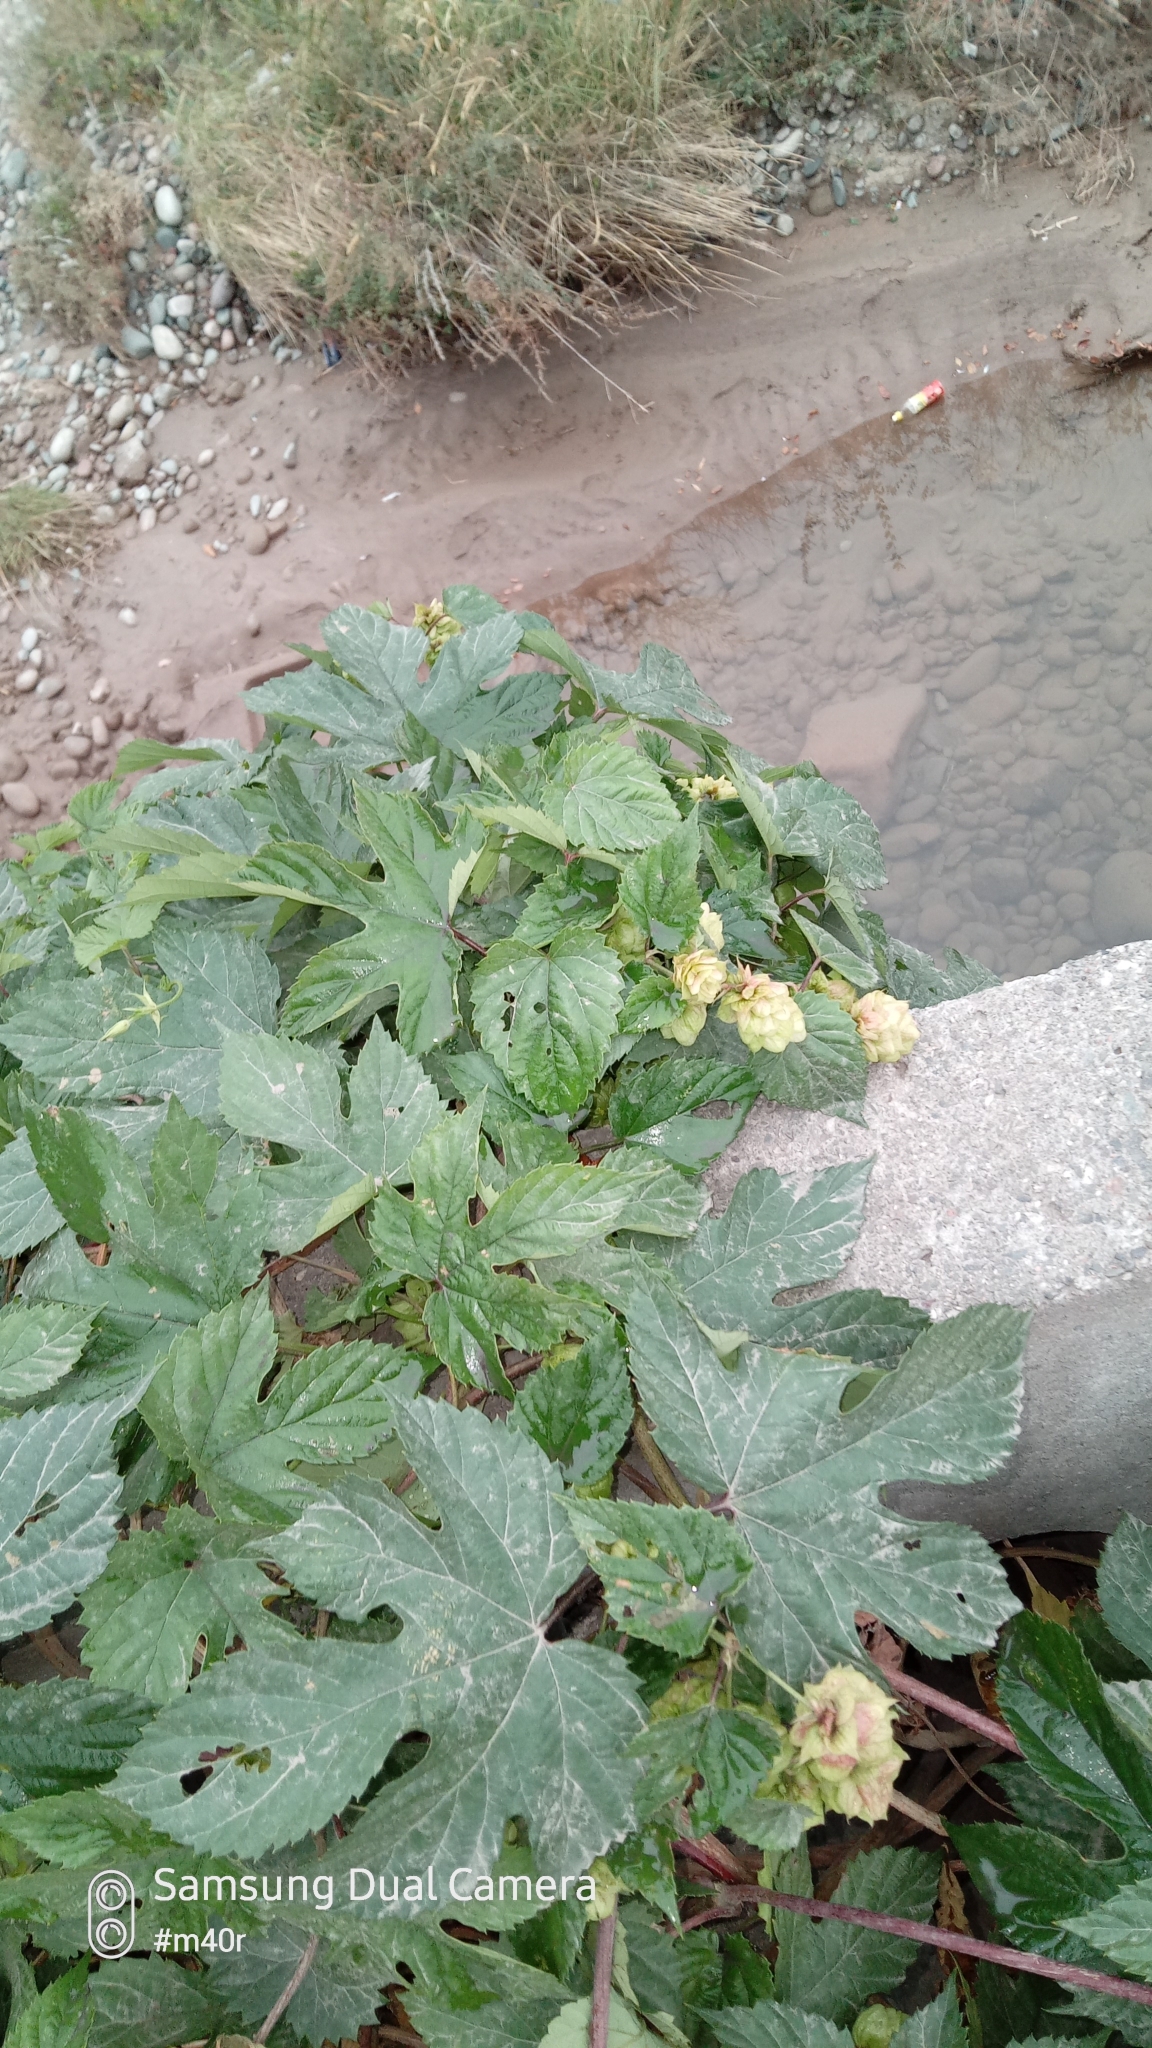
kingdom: Plantae
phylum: Tracheophyta
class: Magnoliopsida
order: Rosales
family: Cannabaceae
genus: Humulus
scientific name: Humulus lupulus
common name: Hop
